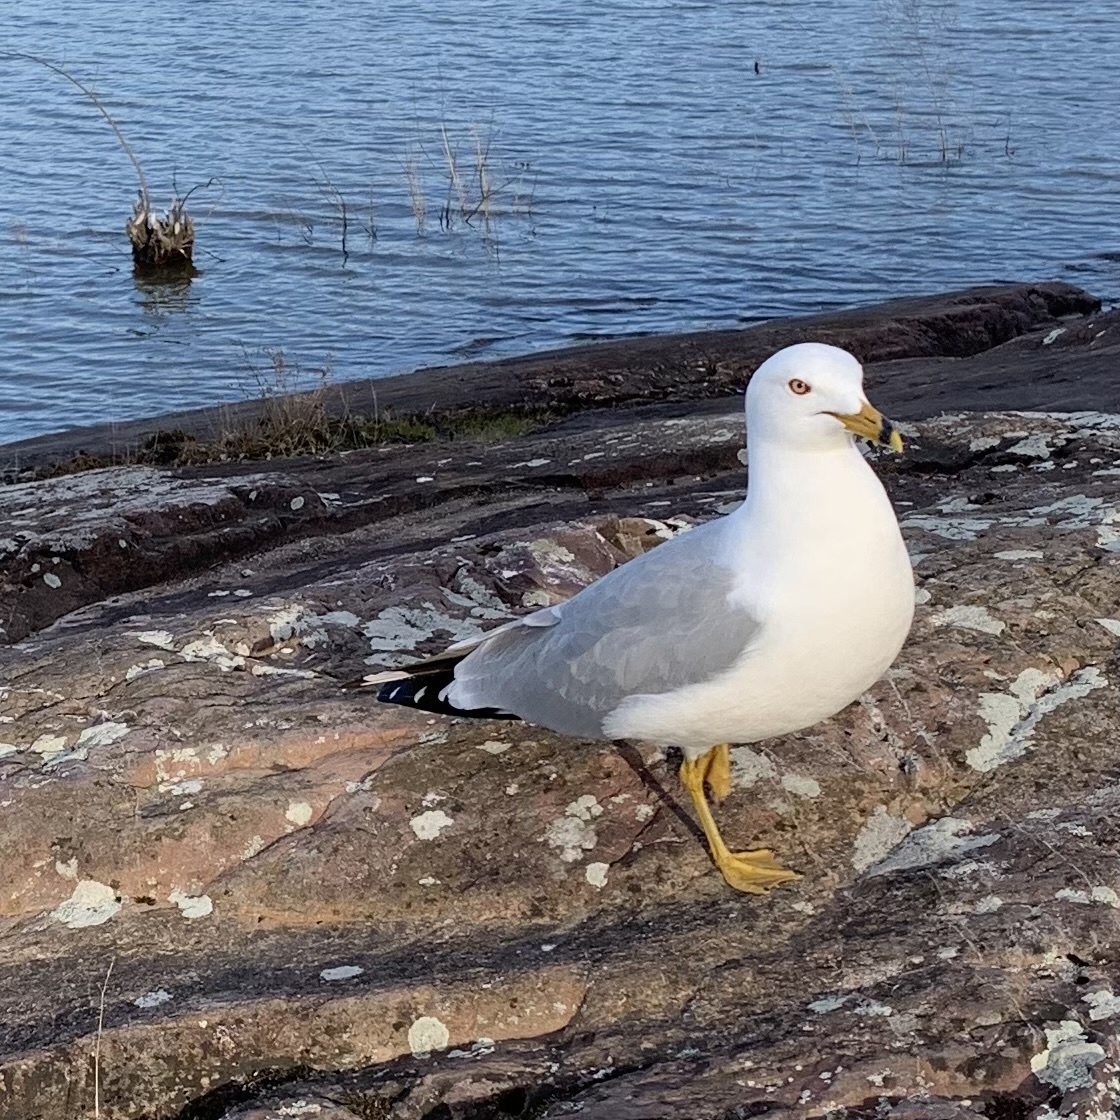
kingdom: Animalia
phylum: Chordata
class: Aves
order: Charadriiformes
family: Laridae
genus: Larus
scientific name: Larus delawarensis
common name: Ring-billed gull
